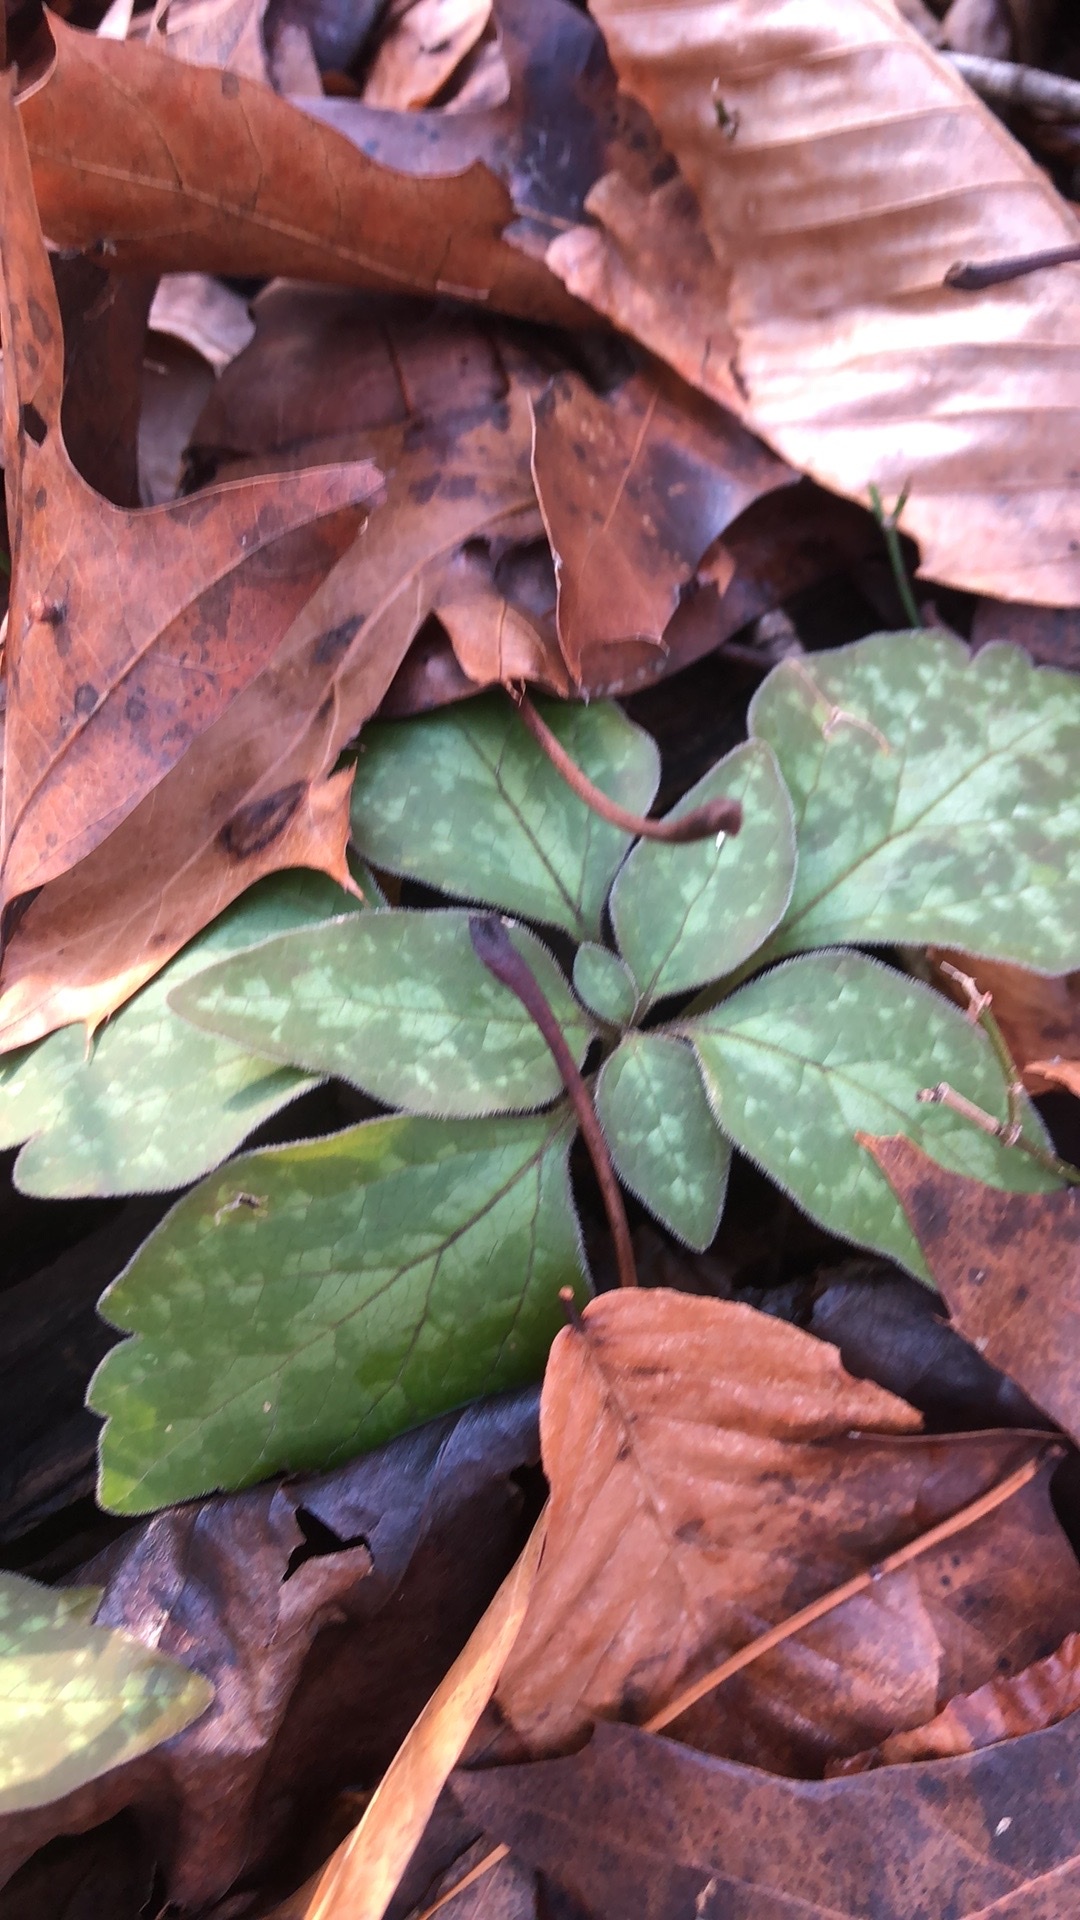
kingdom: Plantae
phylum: Tracheophyta
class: Magnoliopsida
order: Buxales
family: Buxaceae
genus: Pachysandra
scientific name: Pachysandra procumbens
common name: Mountain-spurge
